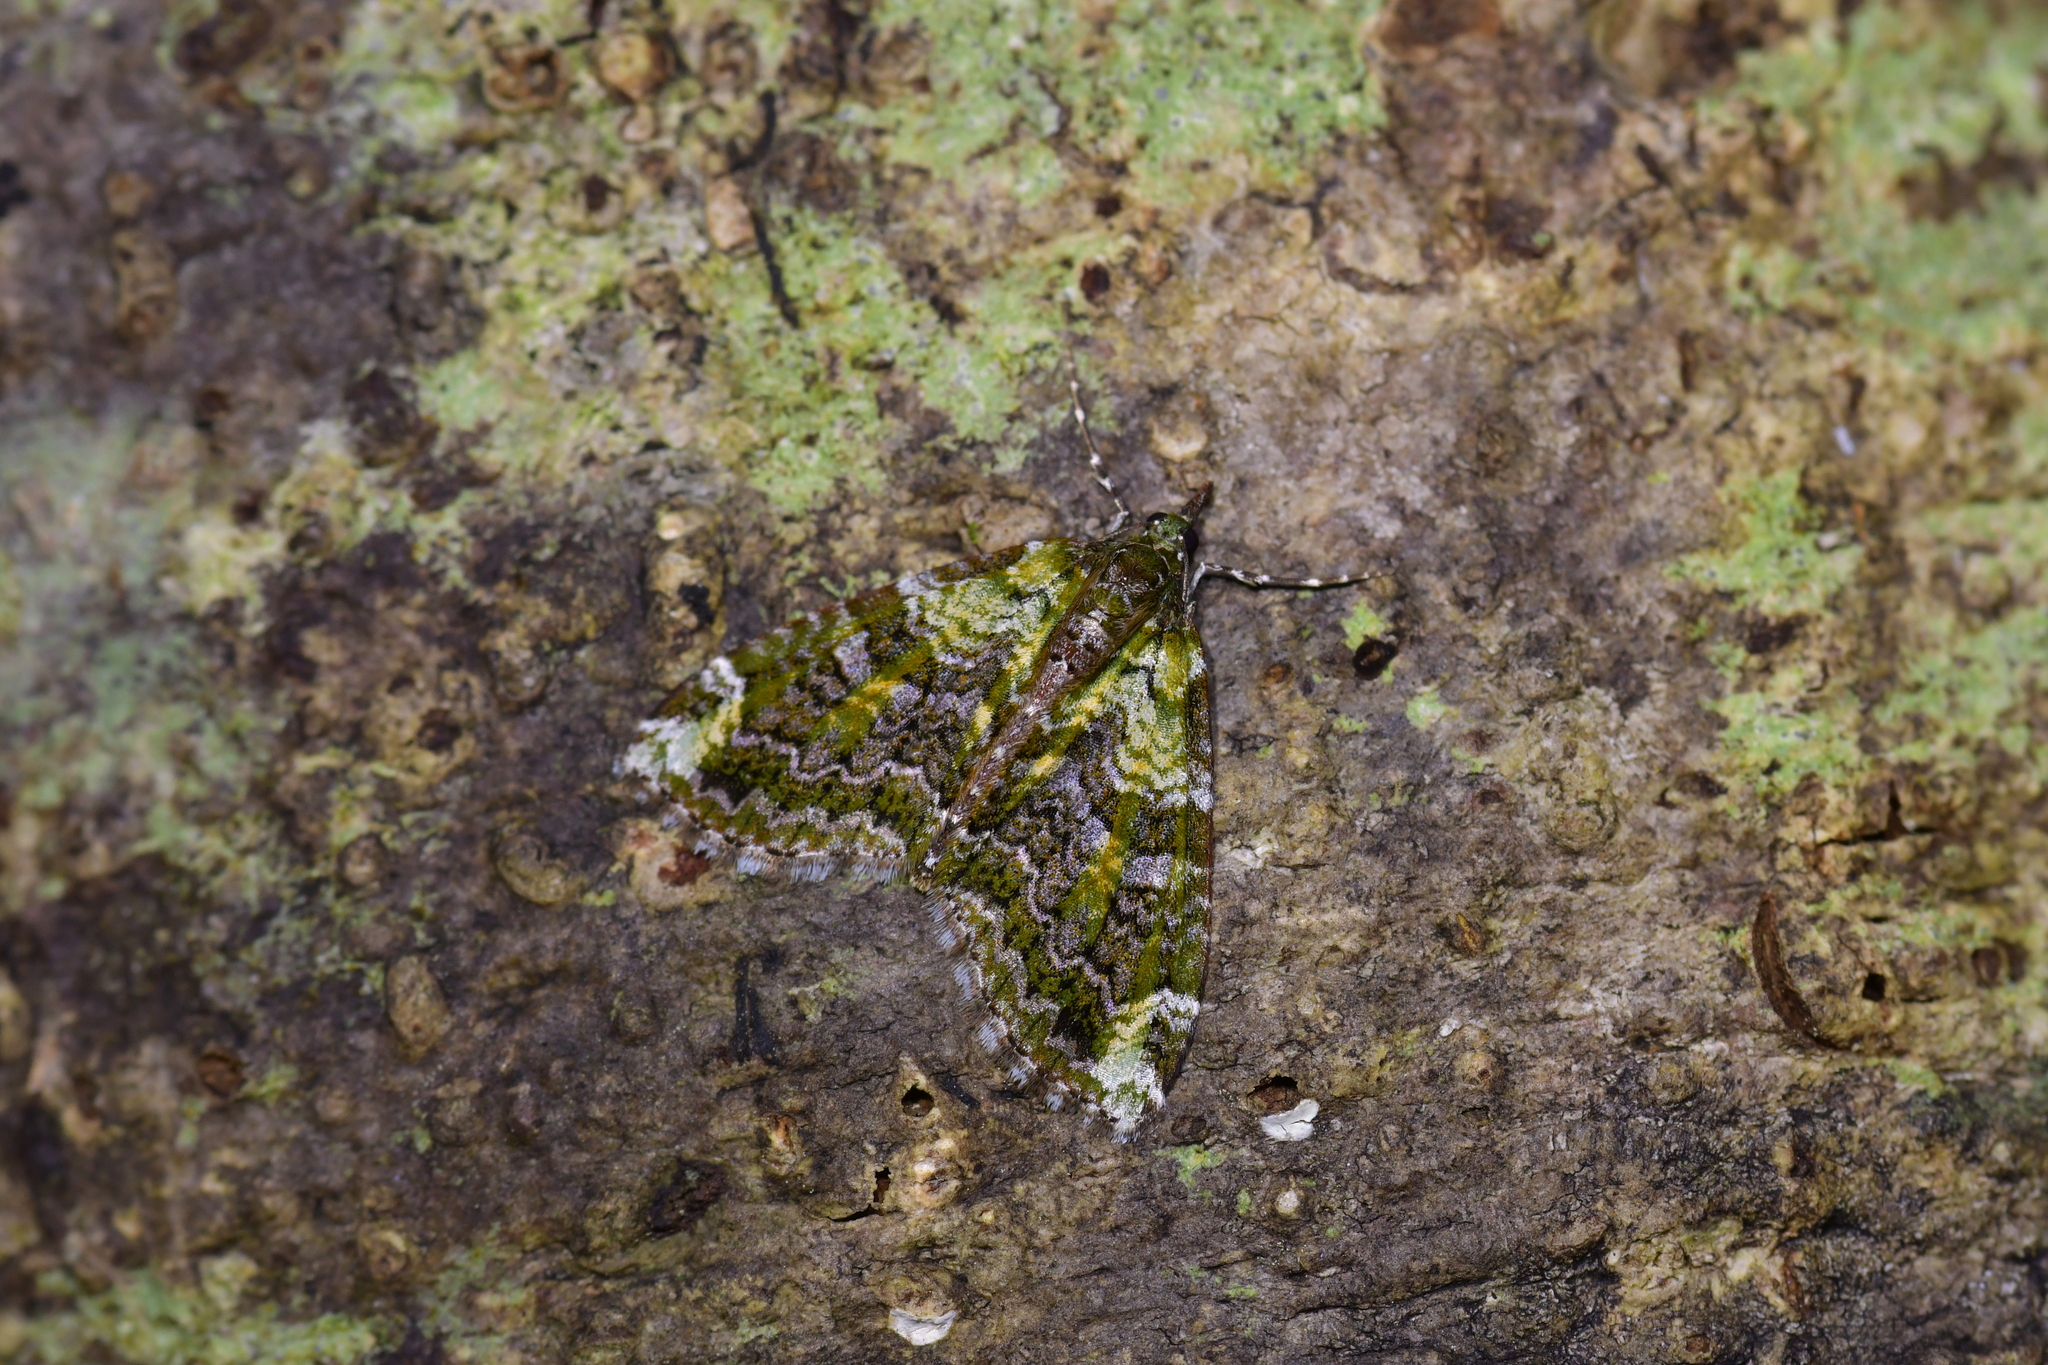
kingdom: Animalia
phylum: Arthropoda
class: Insecta
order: Lepidoptera
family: Geometridae
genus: Tatosoma
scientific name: Tatosoma apicipallida
